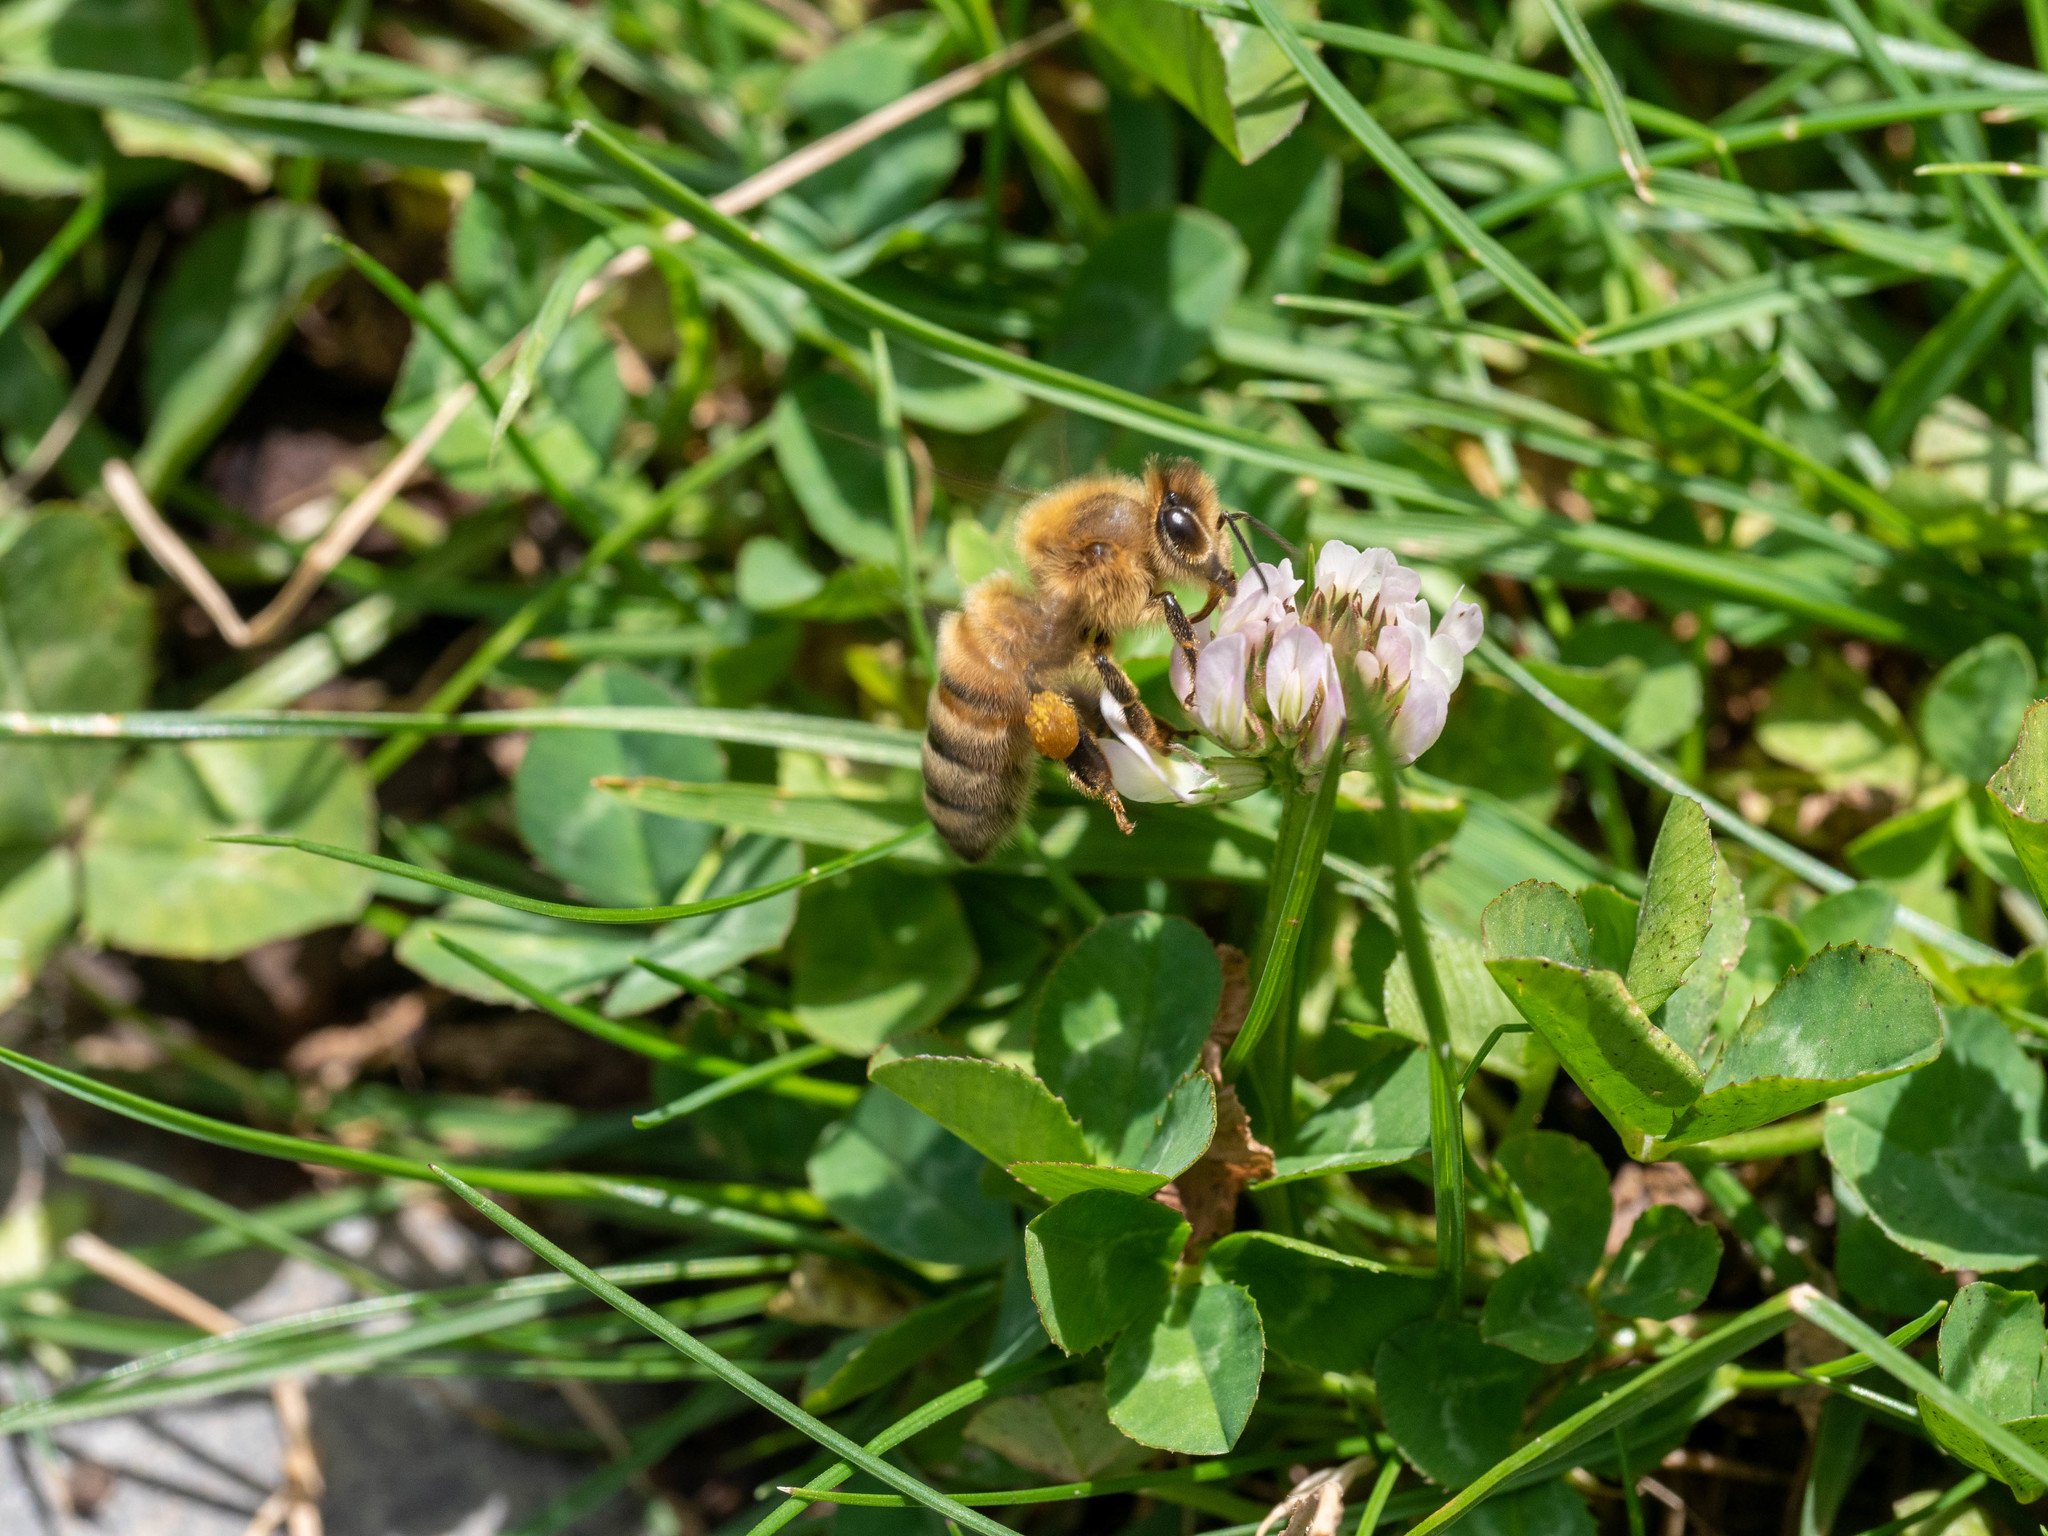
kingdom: Animalia
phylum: Arthropoda
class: Insecta
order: Hymenoptera
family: Apidae
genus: Apis
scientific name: Apis mellifera
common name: Honey bee
